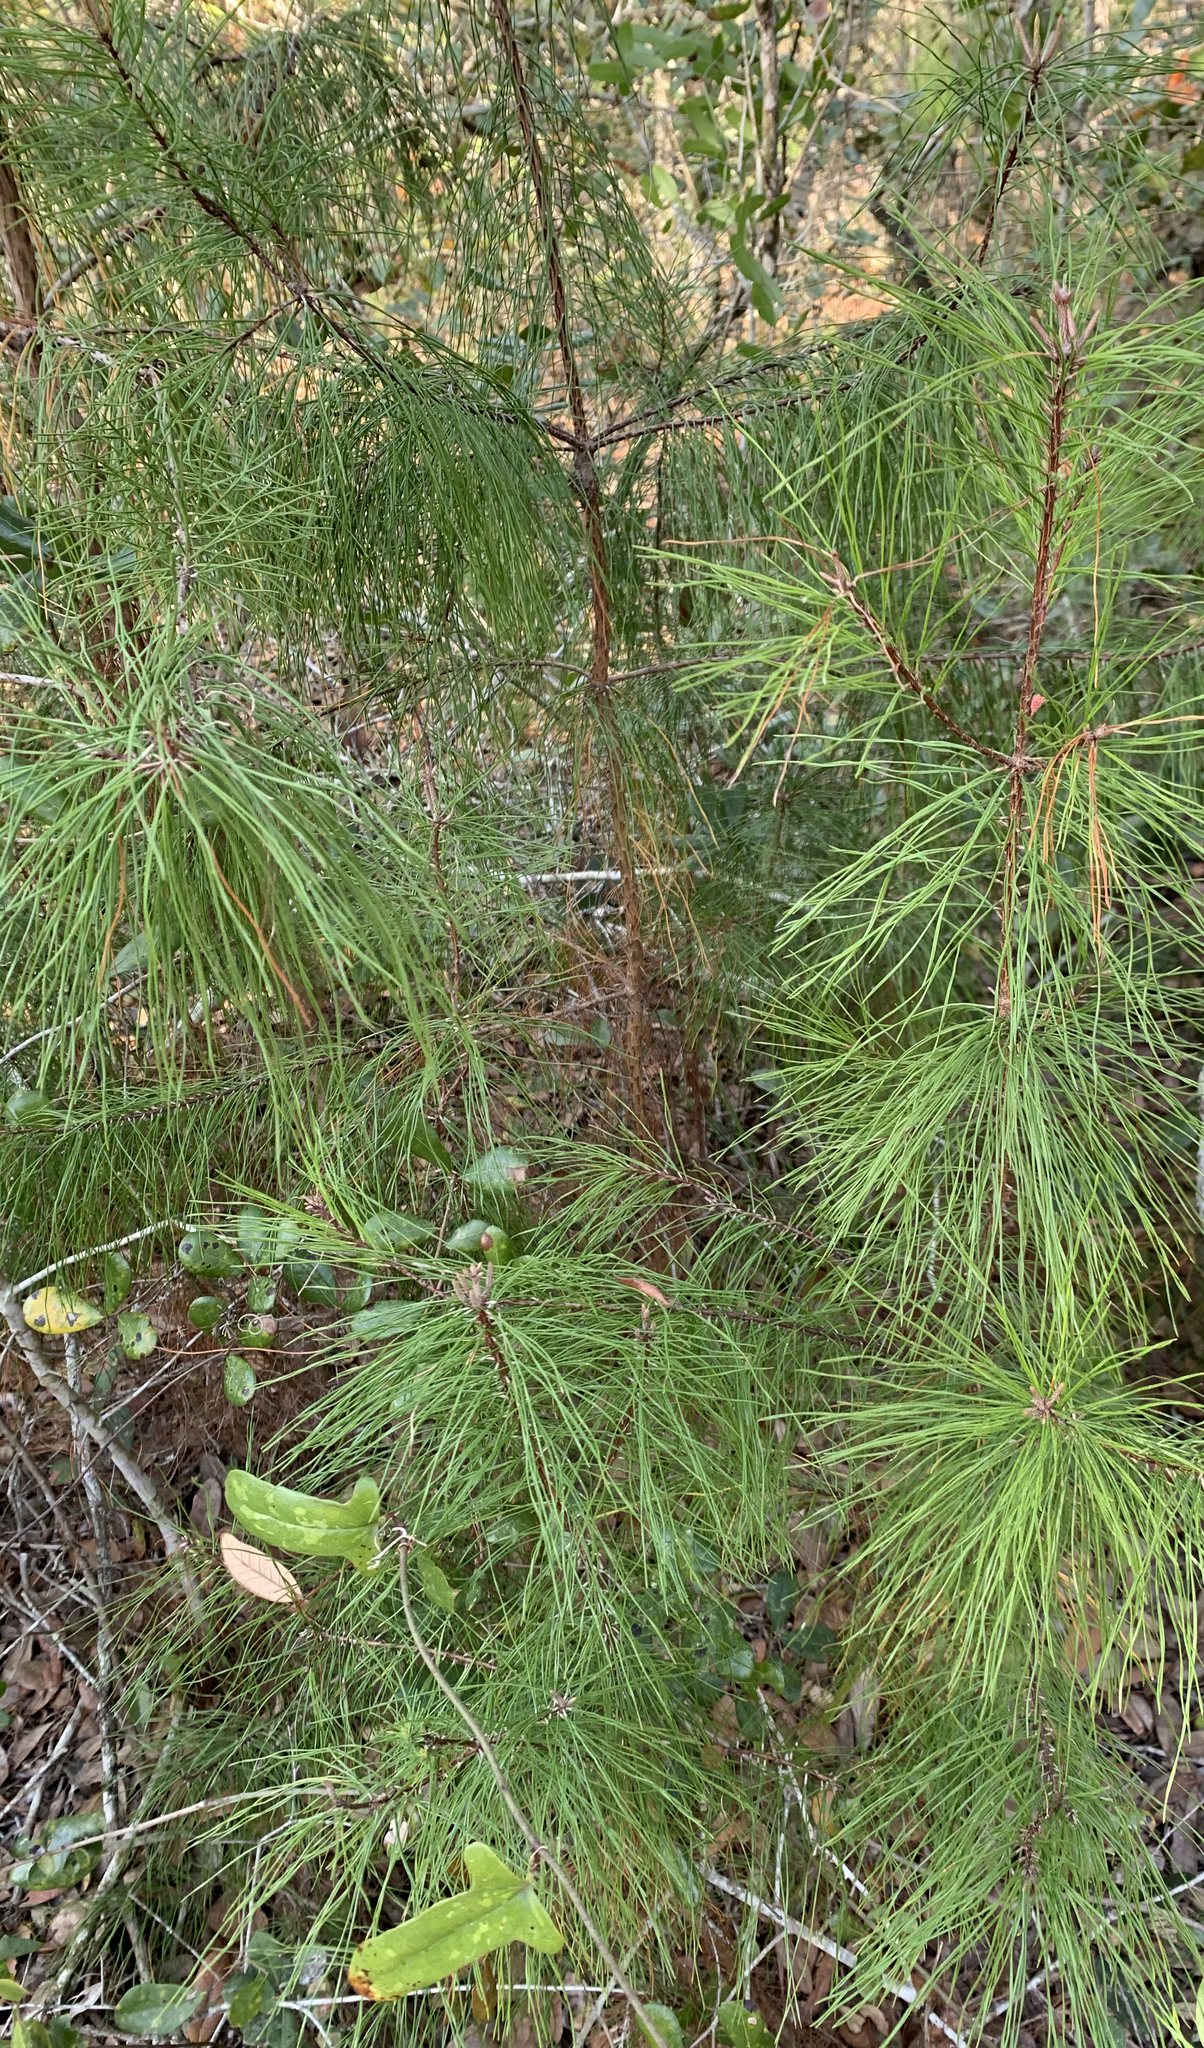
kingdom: Plantae
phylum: Tracheophyta
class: Pinopsida
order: Pinales
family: Pinaceae
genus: Pinus
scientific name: Pinus clausa
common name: Sand pine
